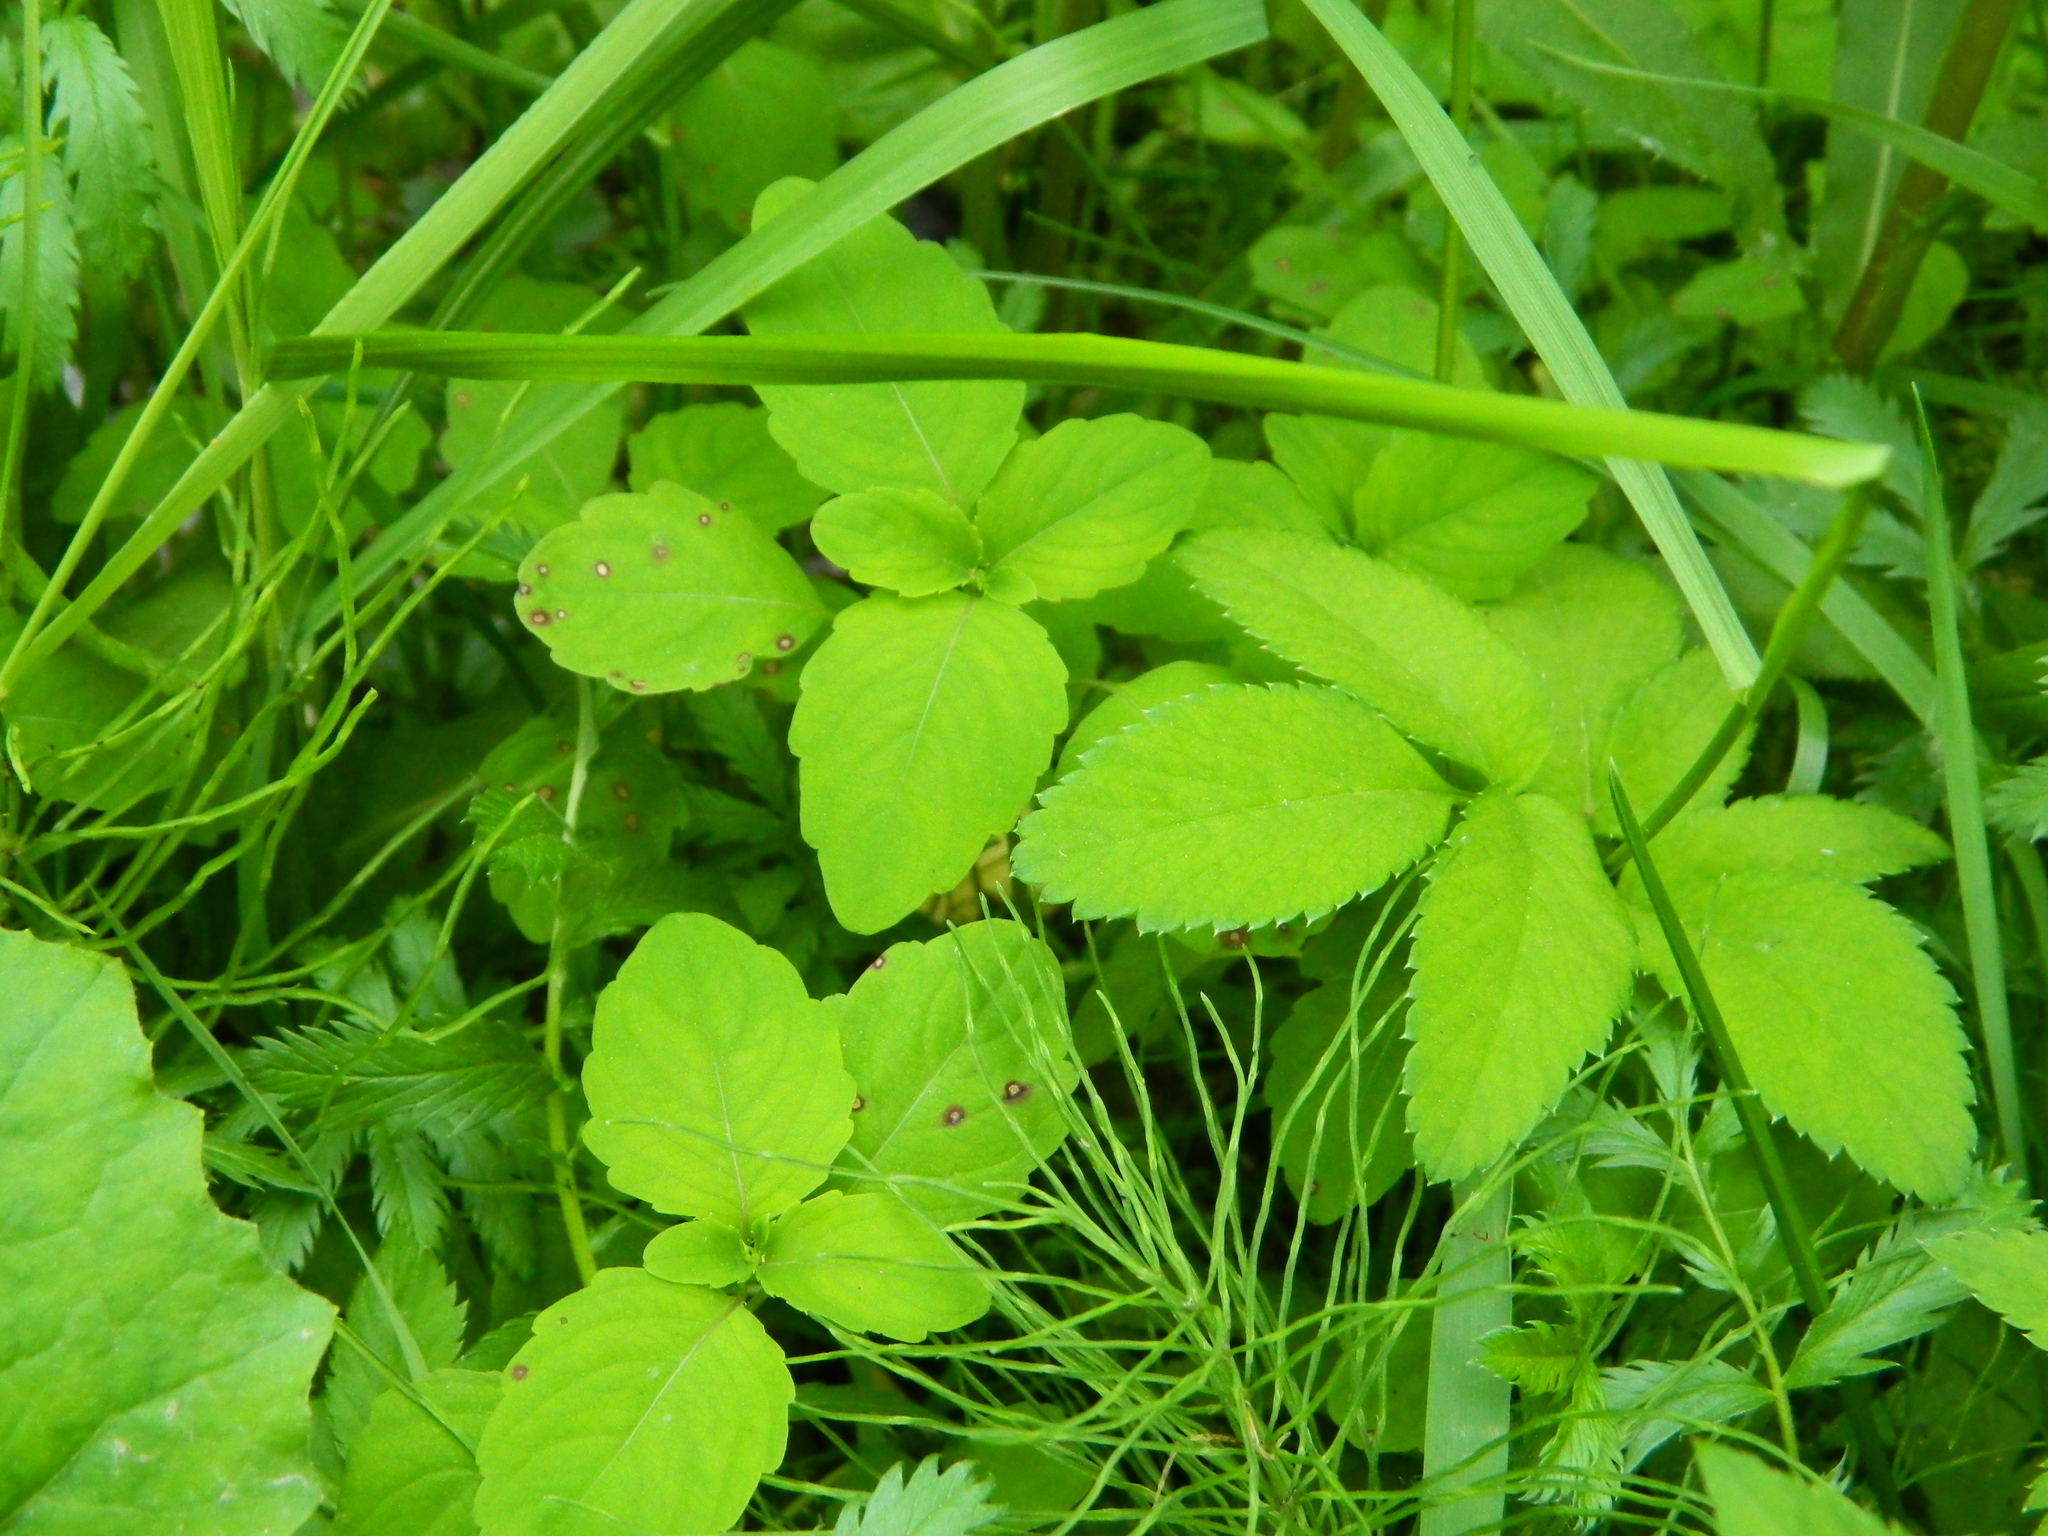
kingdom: Plantae
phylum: Tracheophyta
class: Magnoliopsida
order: Ericales
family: Balsaminaceae
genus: Impatiens
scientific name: Impatiens noli-tangere
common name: Touch-me-not balsam
